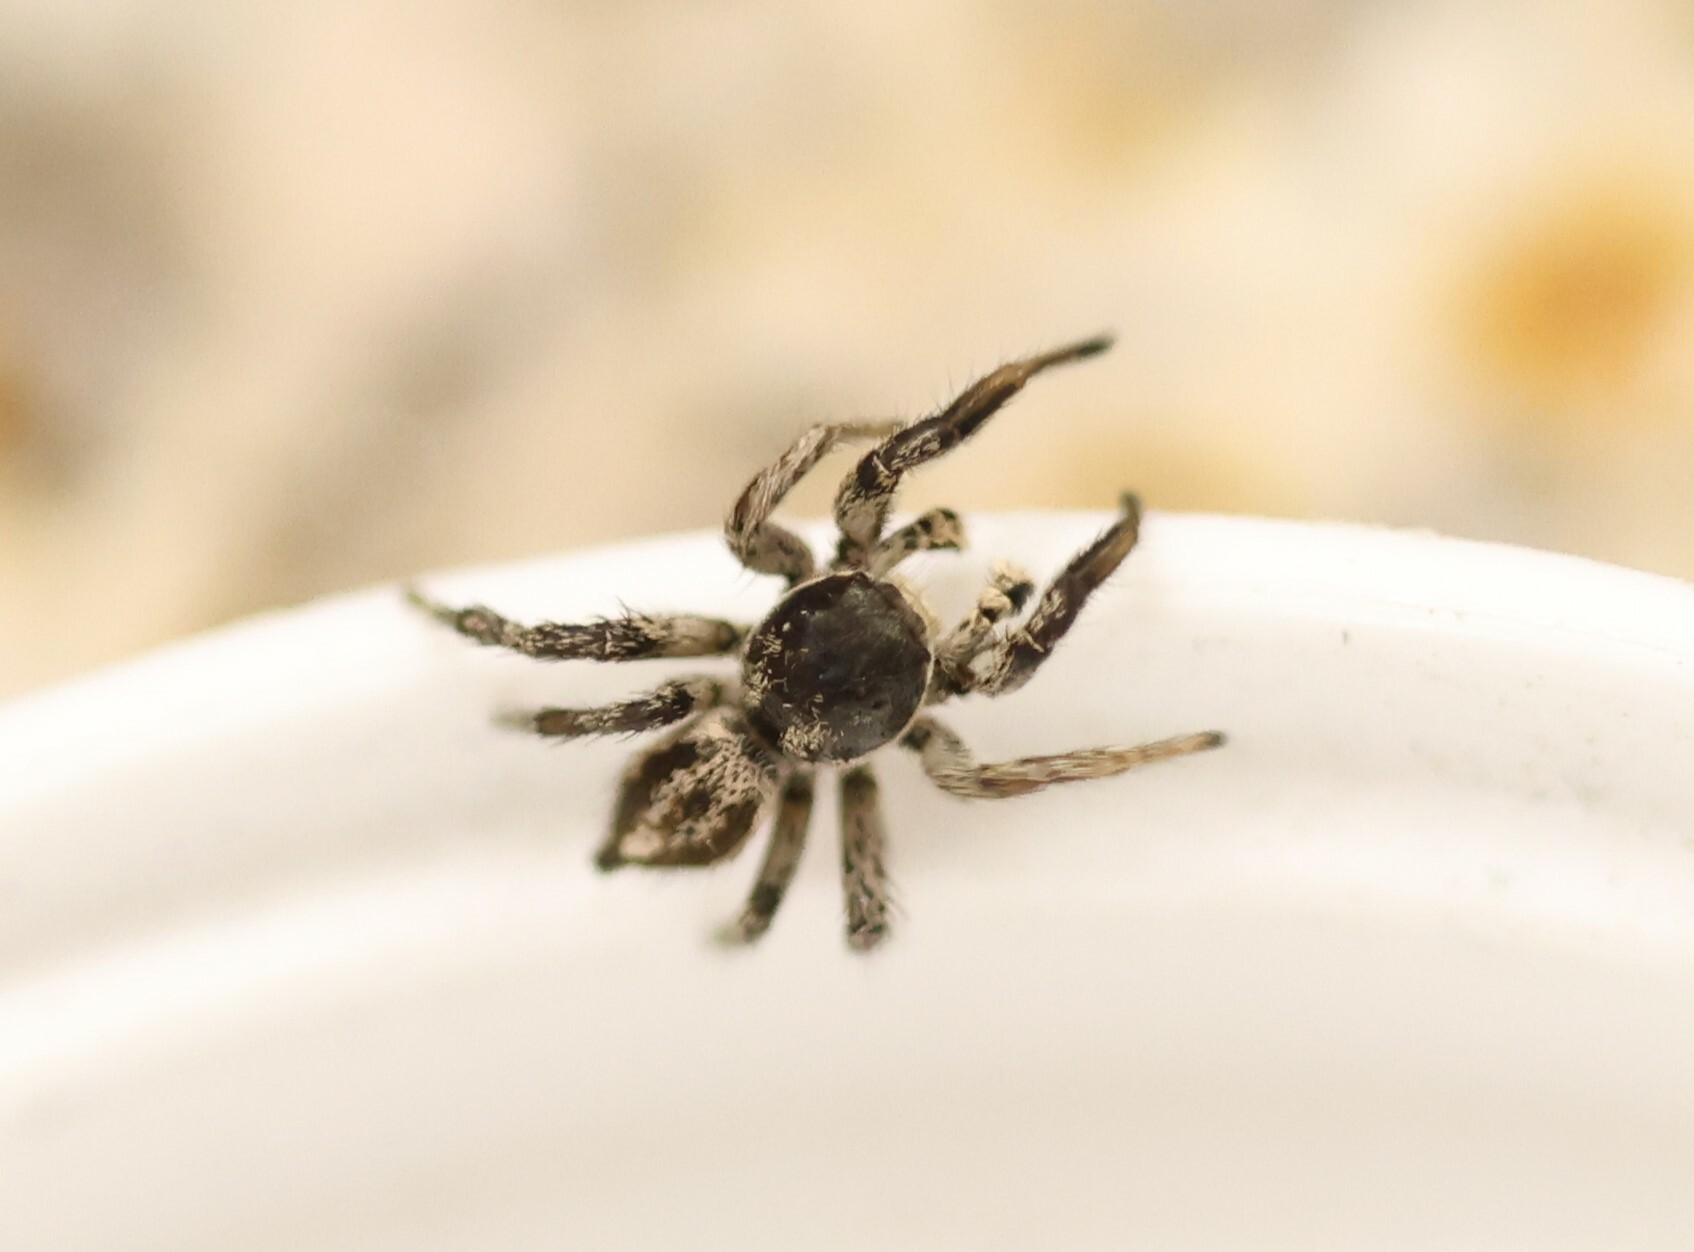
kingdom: Animalia
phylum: Arthropoda
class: Arachnida
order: Araneae
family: Salticidae
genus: Habronattus
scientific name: Habronattus tarsalis
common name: Jumping spider
